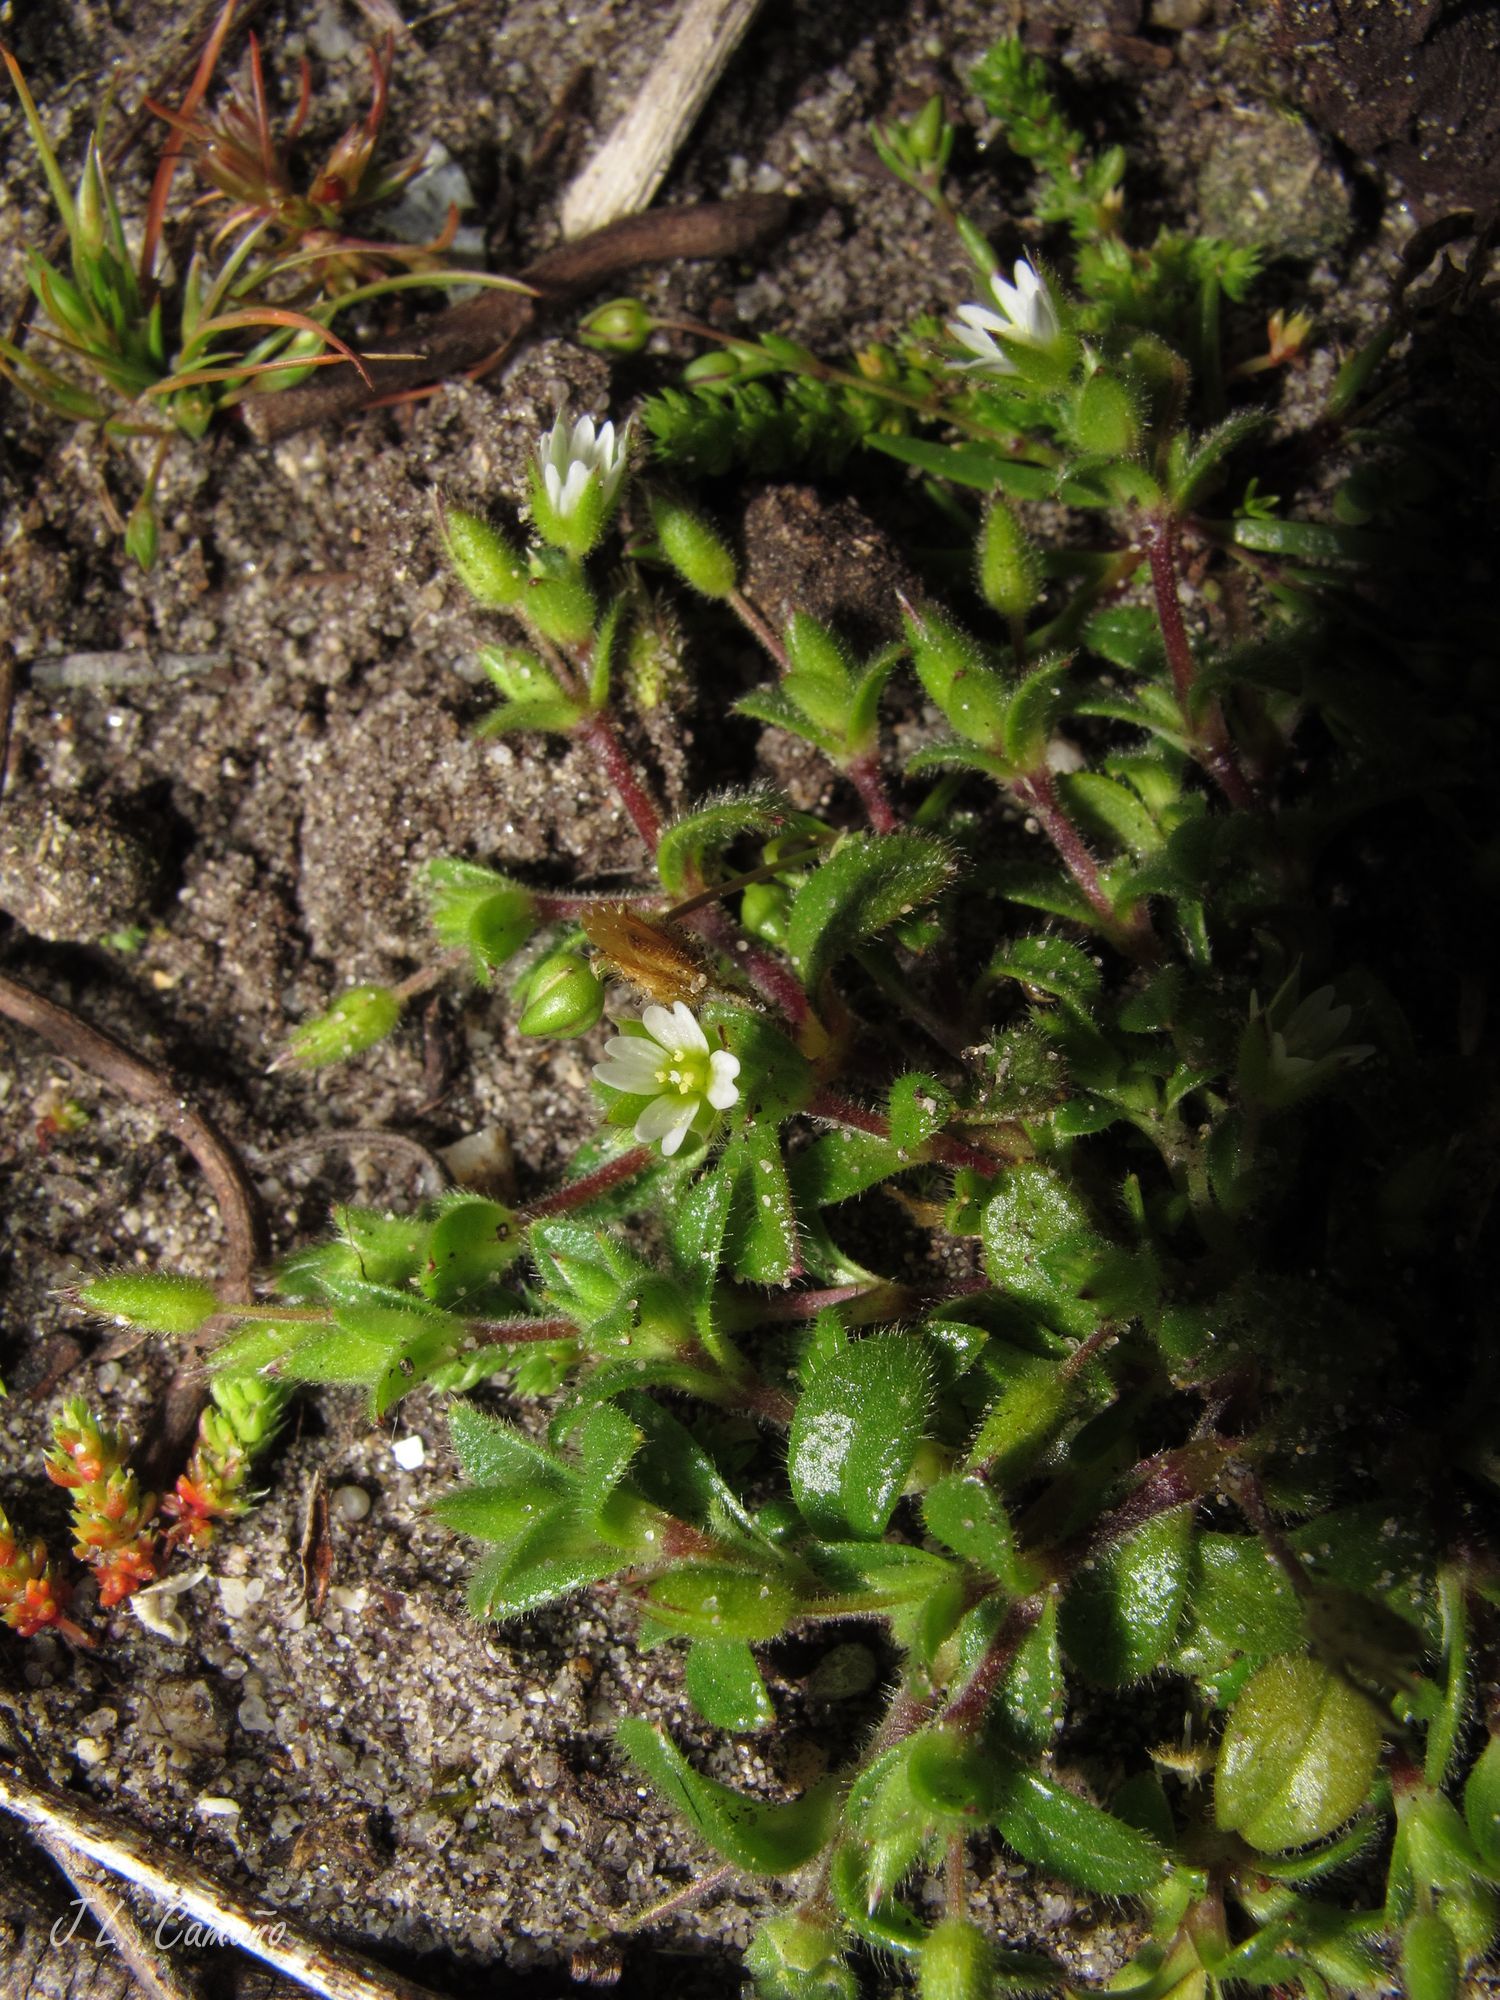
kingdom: Plantae
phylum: Tracheophyta
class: Magnoliopsida
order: Caryophyllales
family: Caryophyllaceae
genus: Cerastium
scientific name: Cerastium diffusum
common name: Fourstamen chickweed
